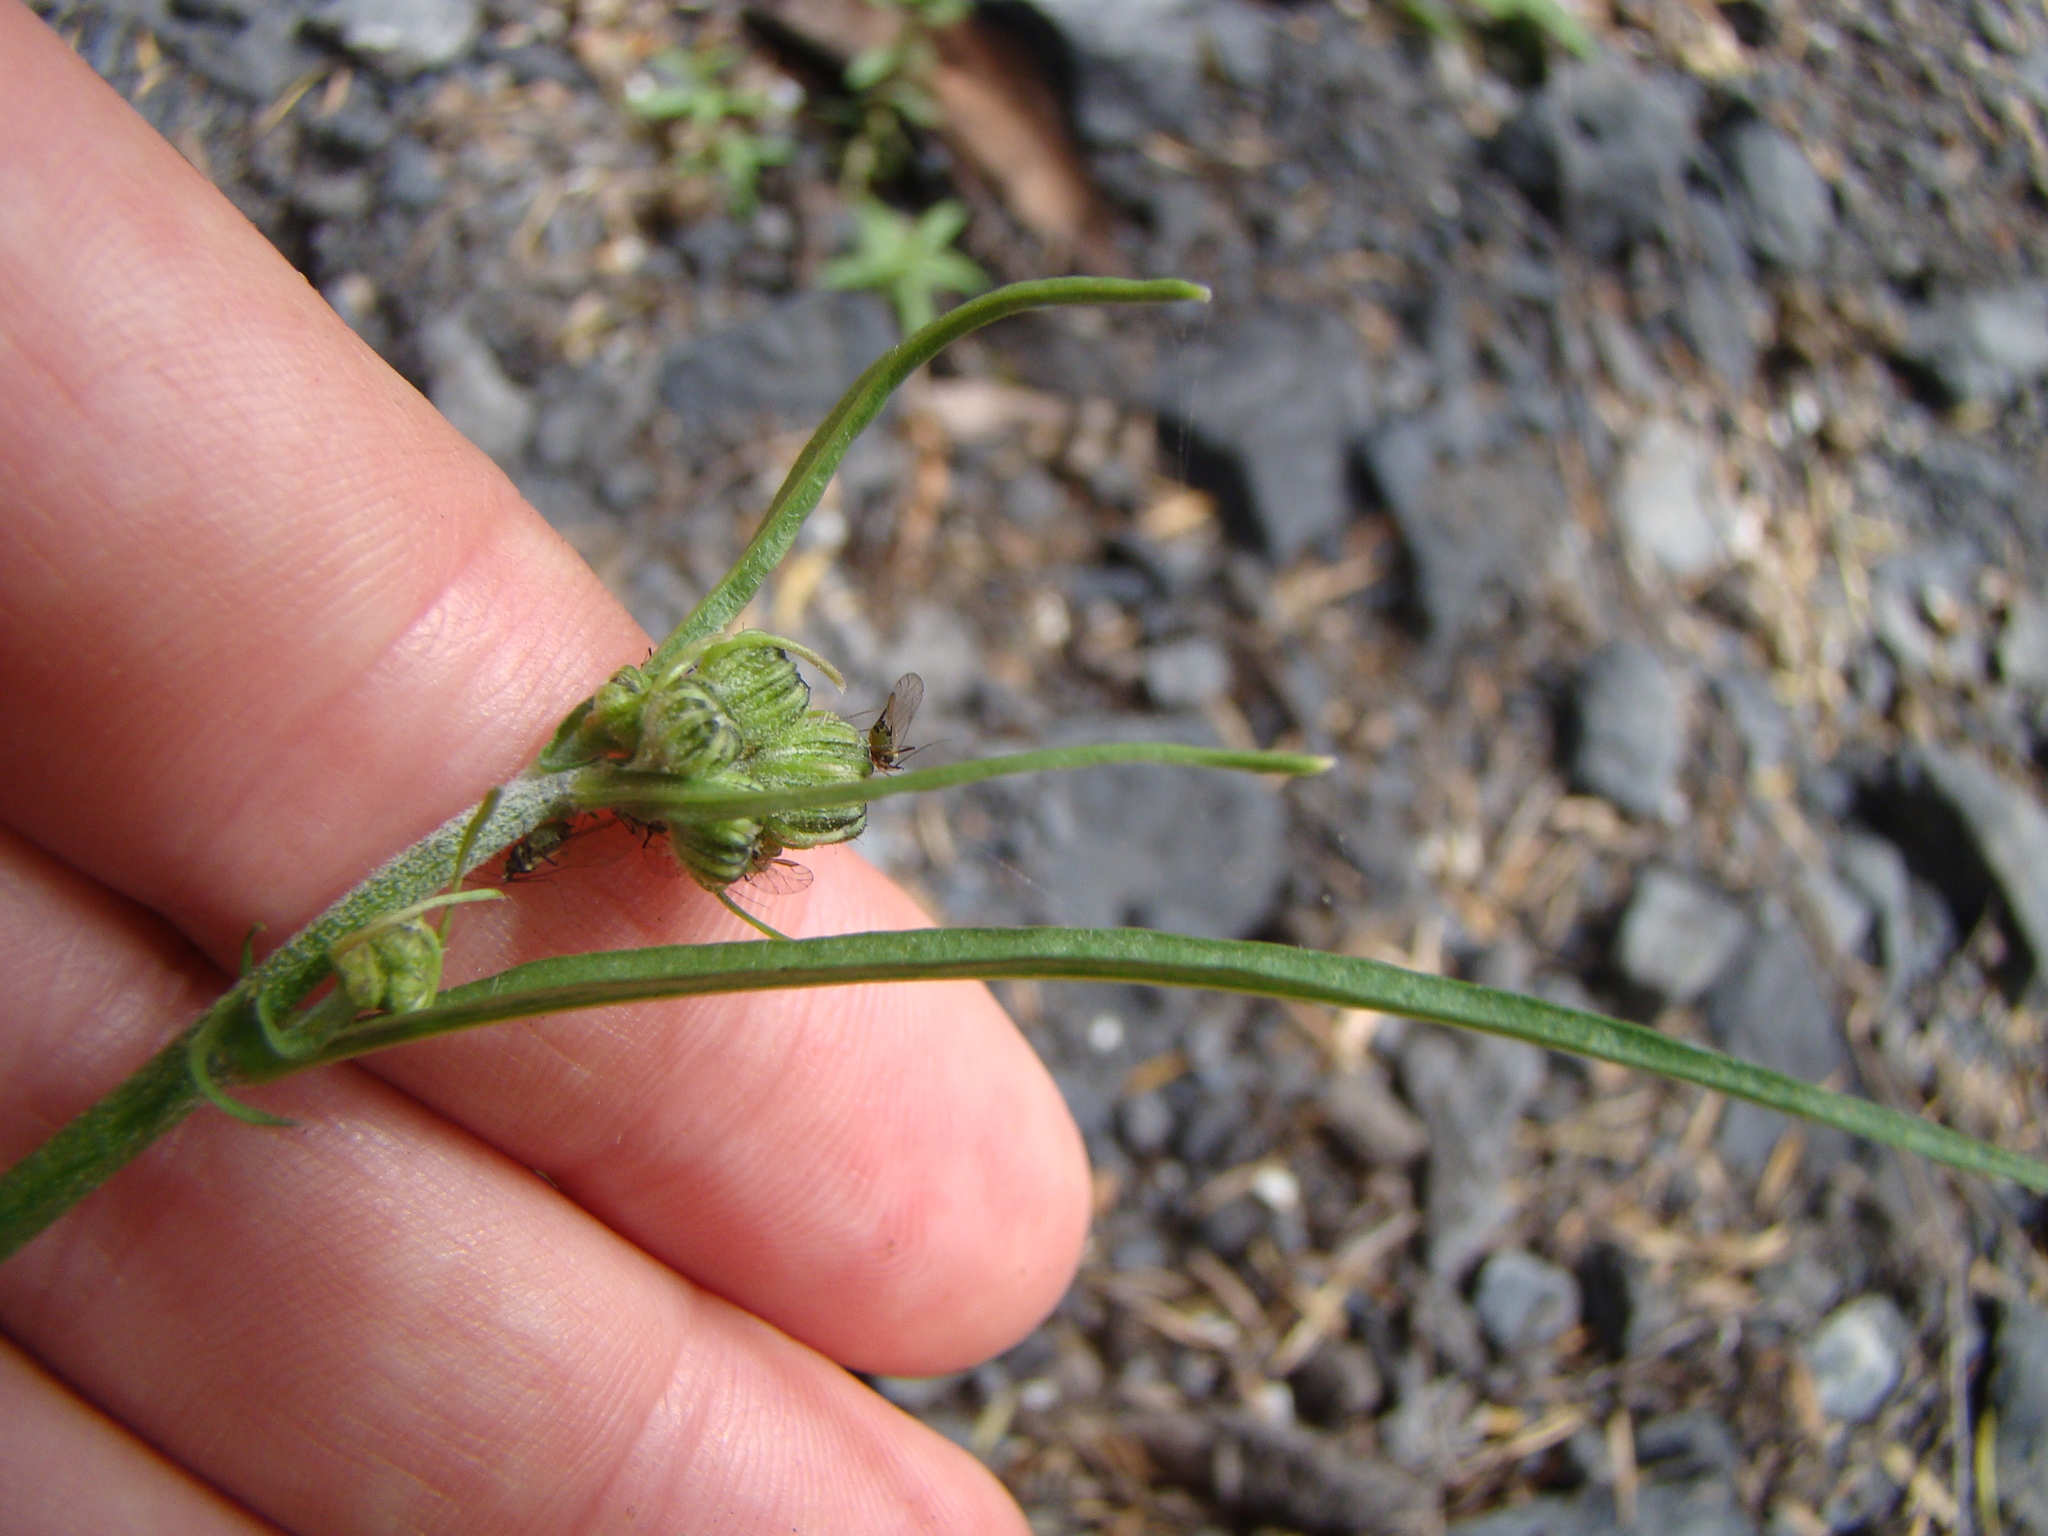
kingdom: Plantae
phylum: Tracheophyta
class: Magnoliopsida
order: Asterales
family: Asteraceae
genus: Crepis
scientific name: Crepis capillaris
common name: Smooth hawksbeard
